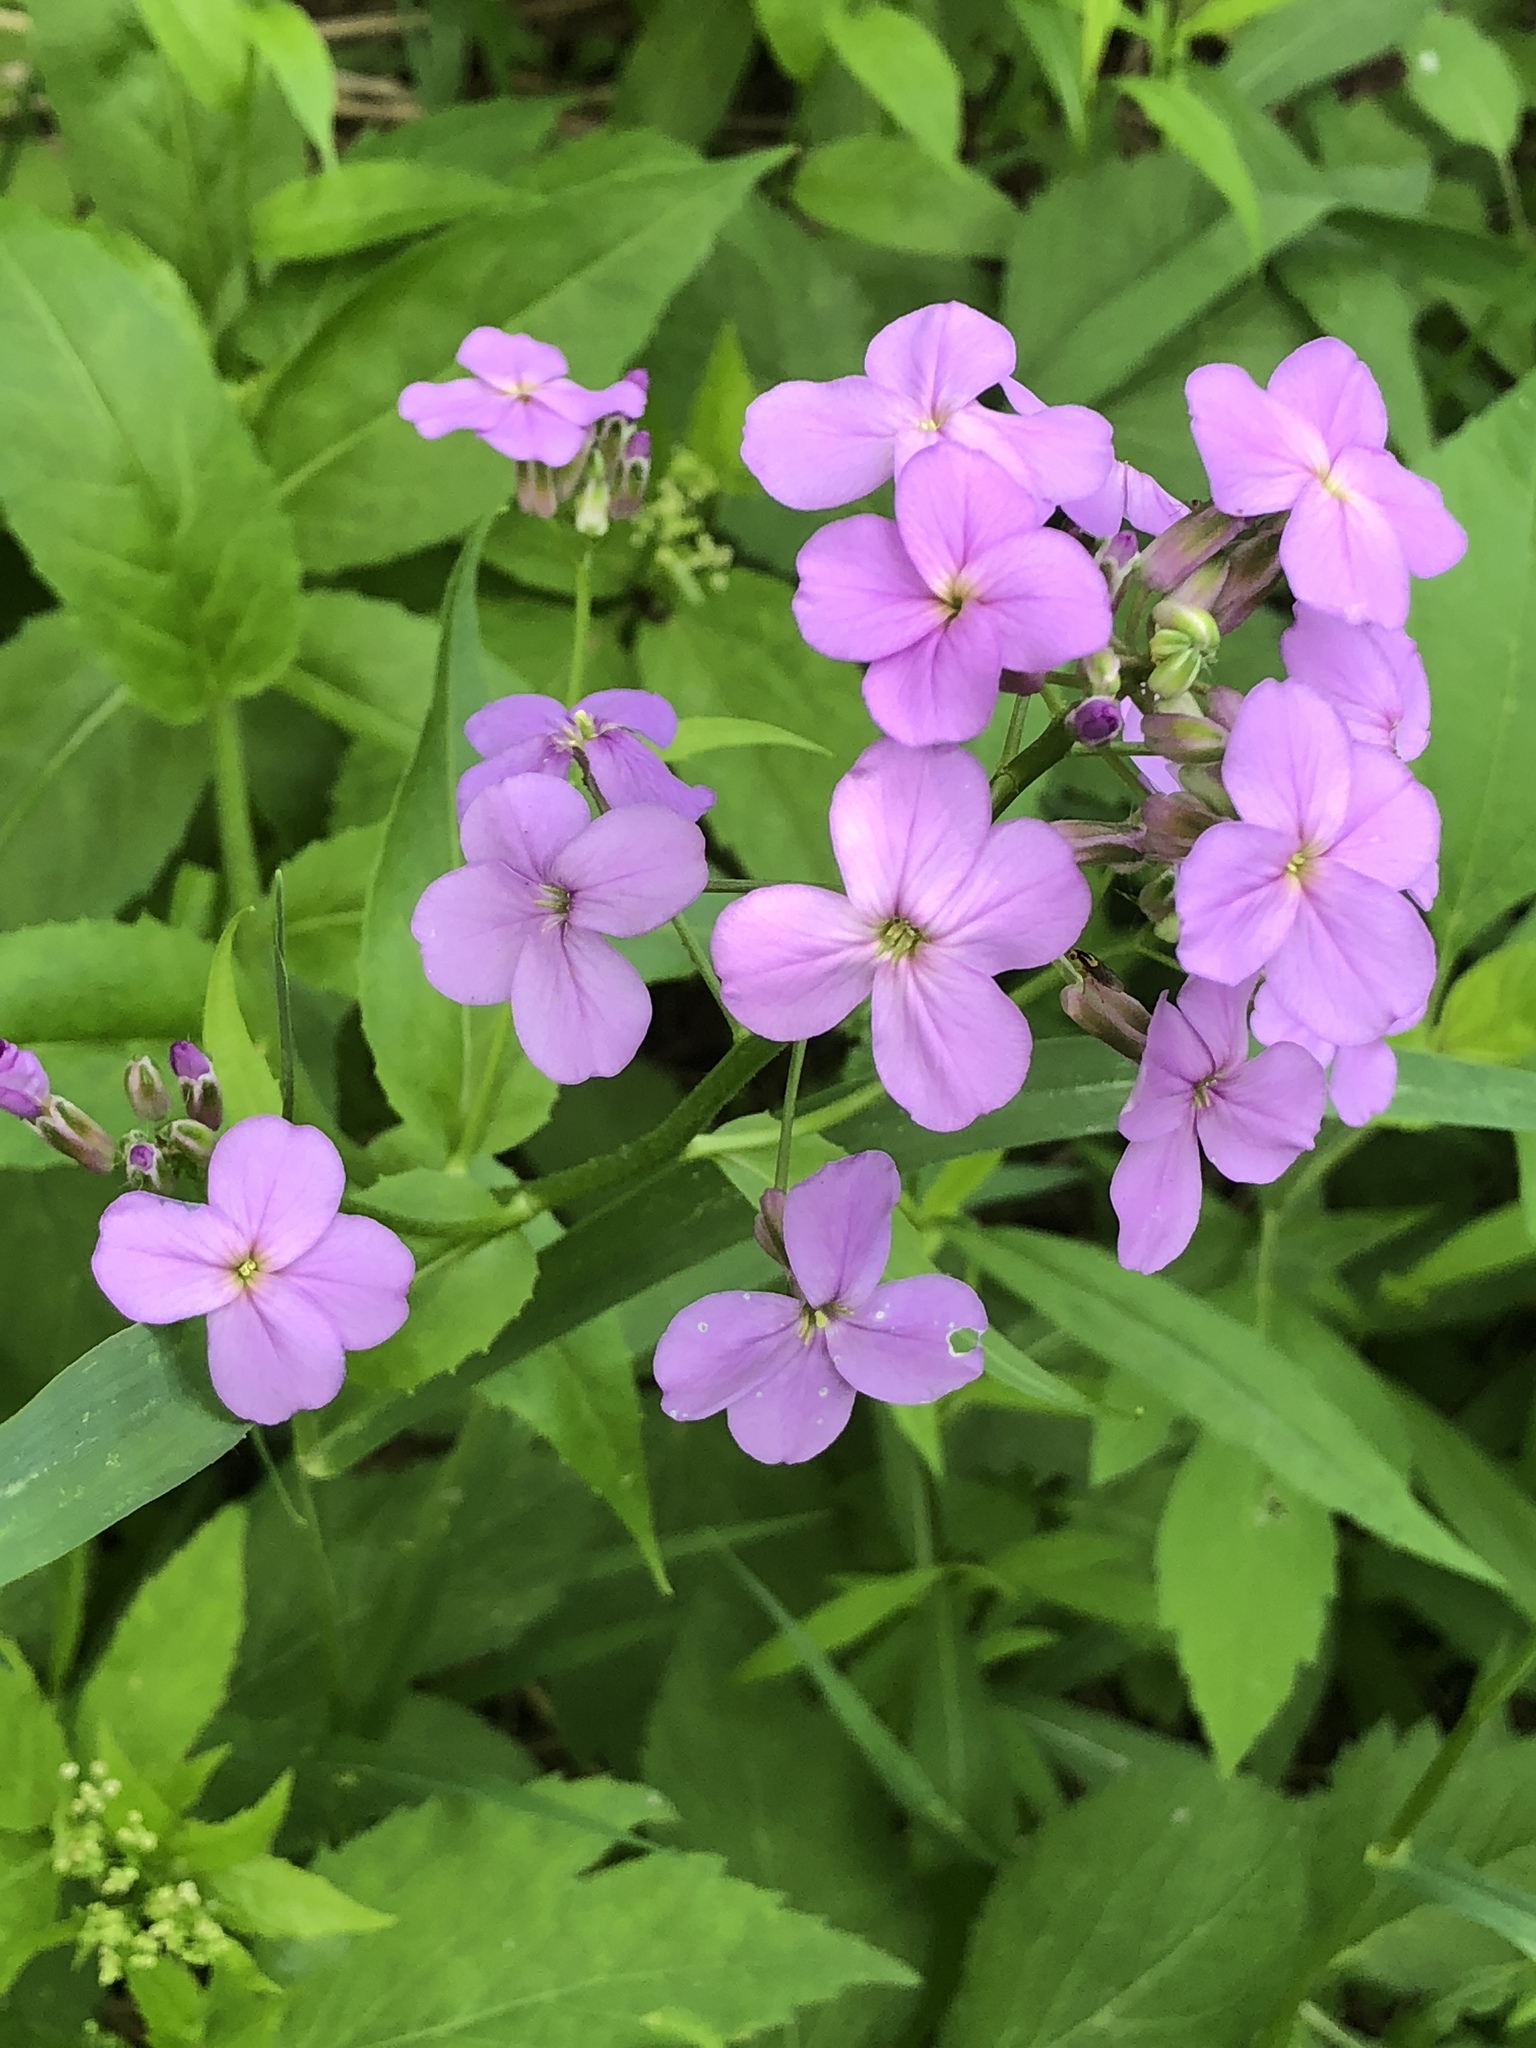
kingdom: Plantae
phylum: Tracheophyta
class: Magnoliopsida
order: Brassicales
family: Brassicaceae
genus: Hesperis
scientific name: Hesperis matronalis
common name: Dame's-violet
